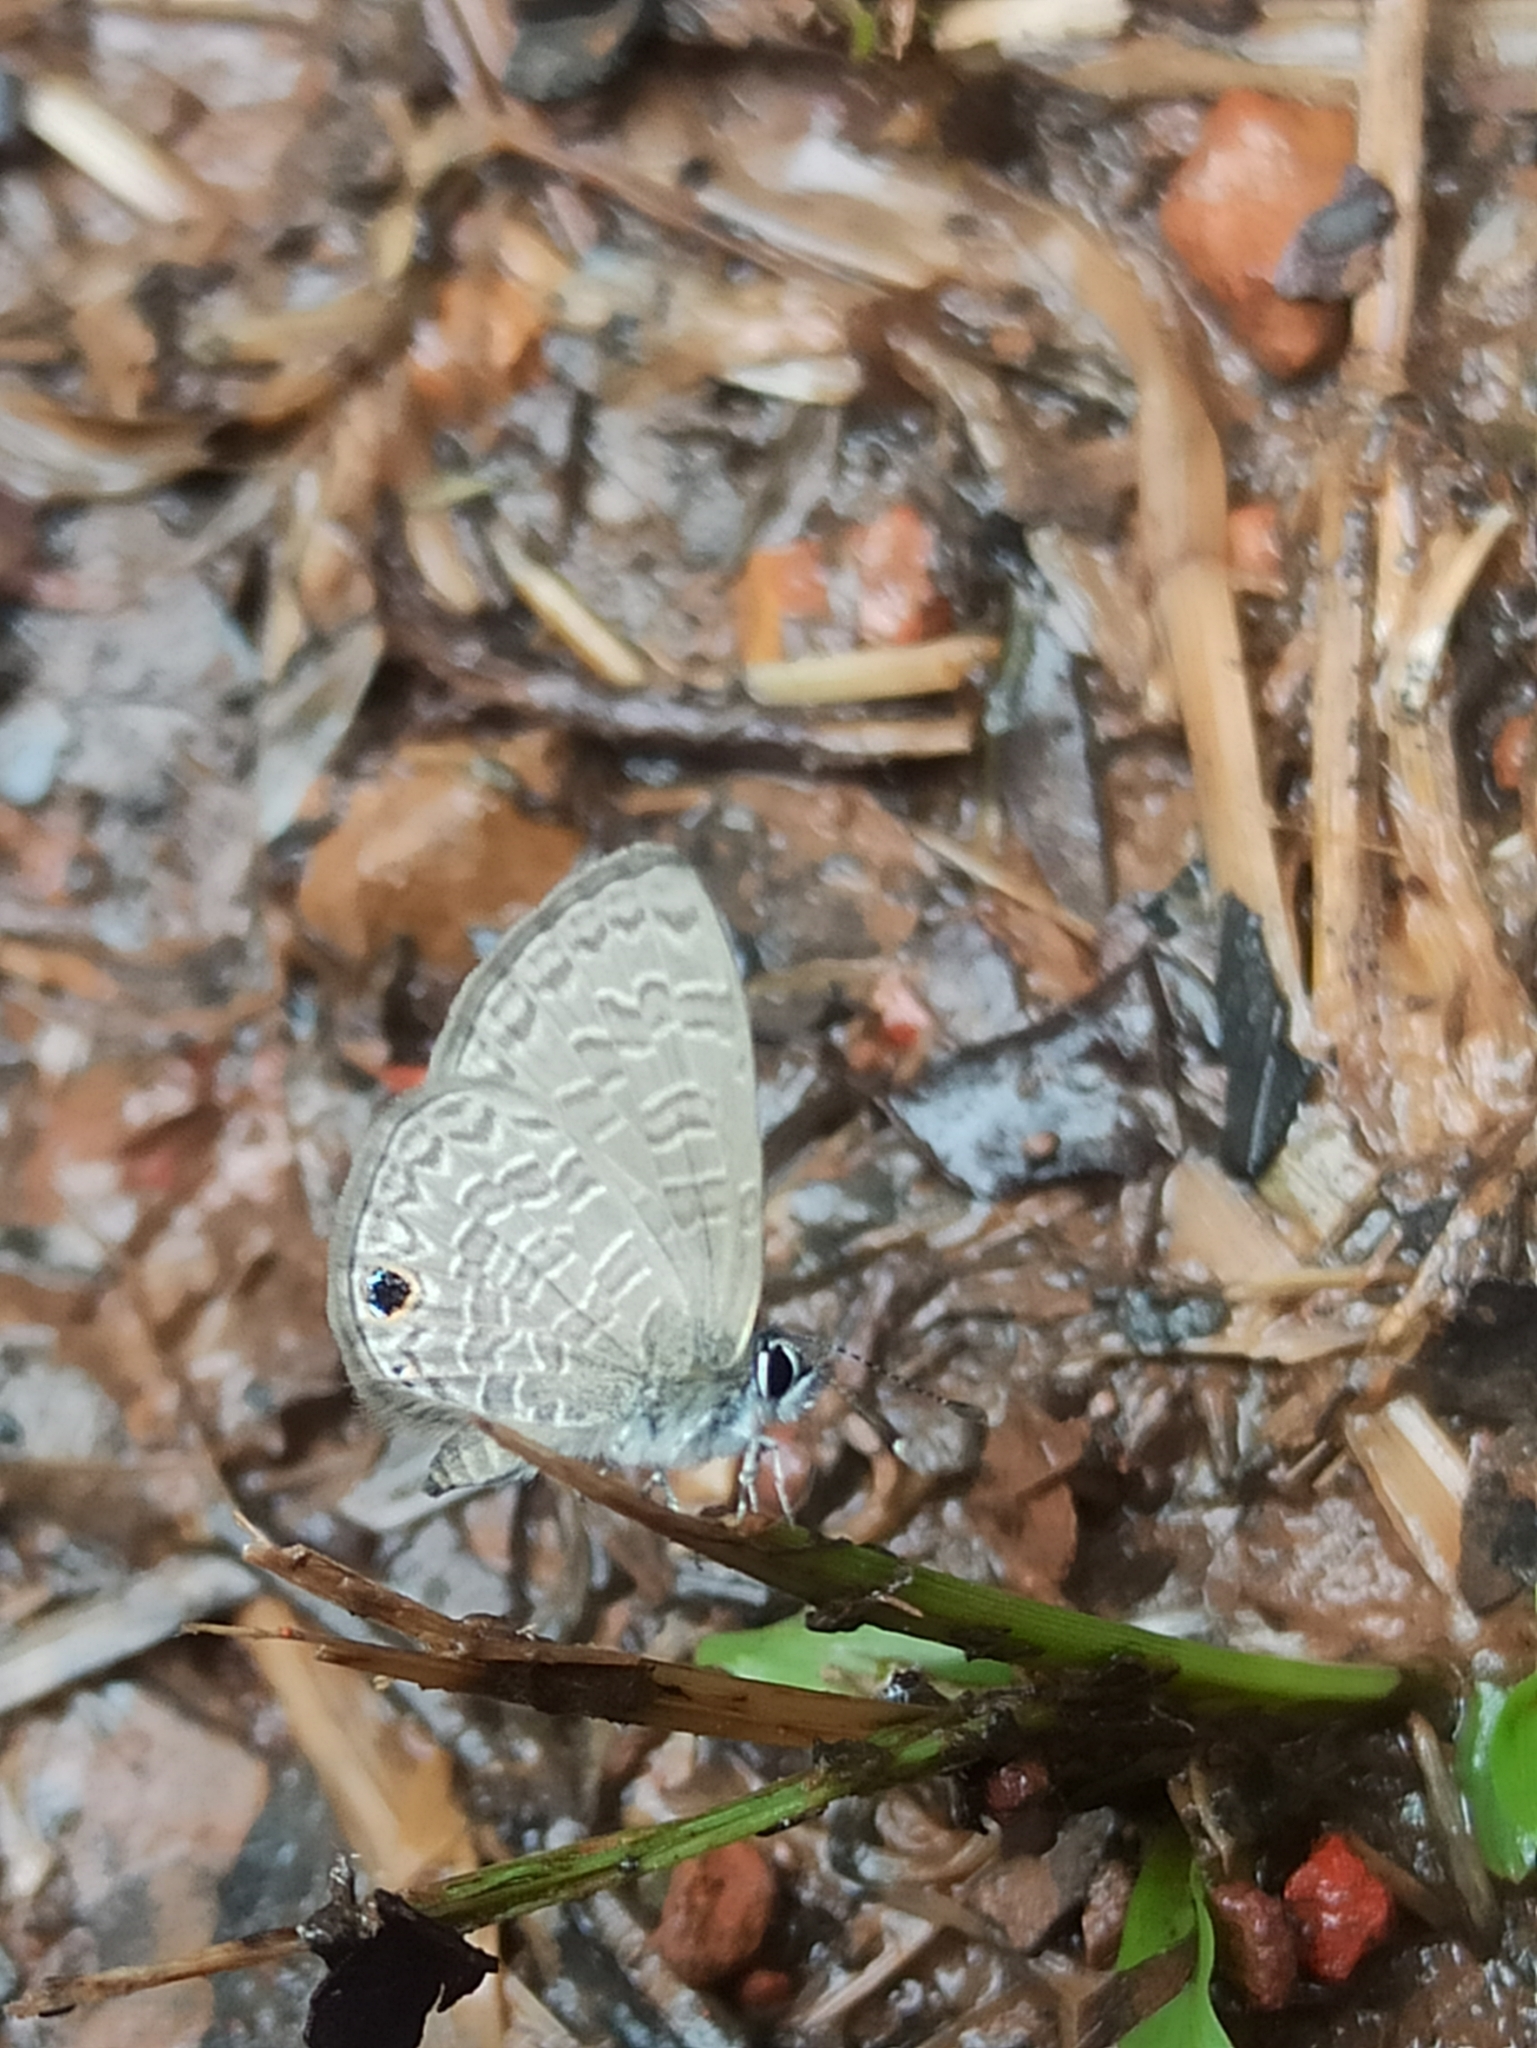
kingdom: Animalia
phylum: Arthropoda
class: Insecta
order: Lepidoptera
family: Lycaenidae
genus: Prosotas
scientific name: Prosotas dubiosa
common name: Tailless lineblue
